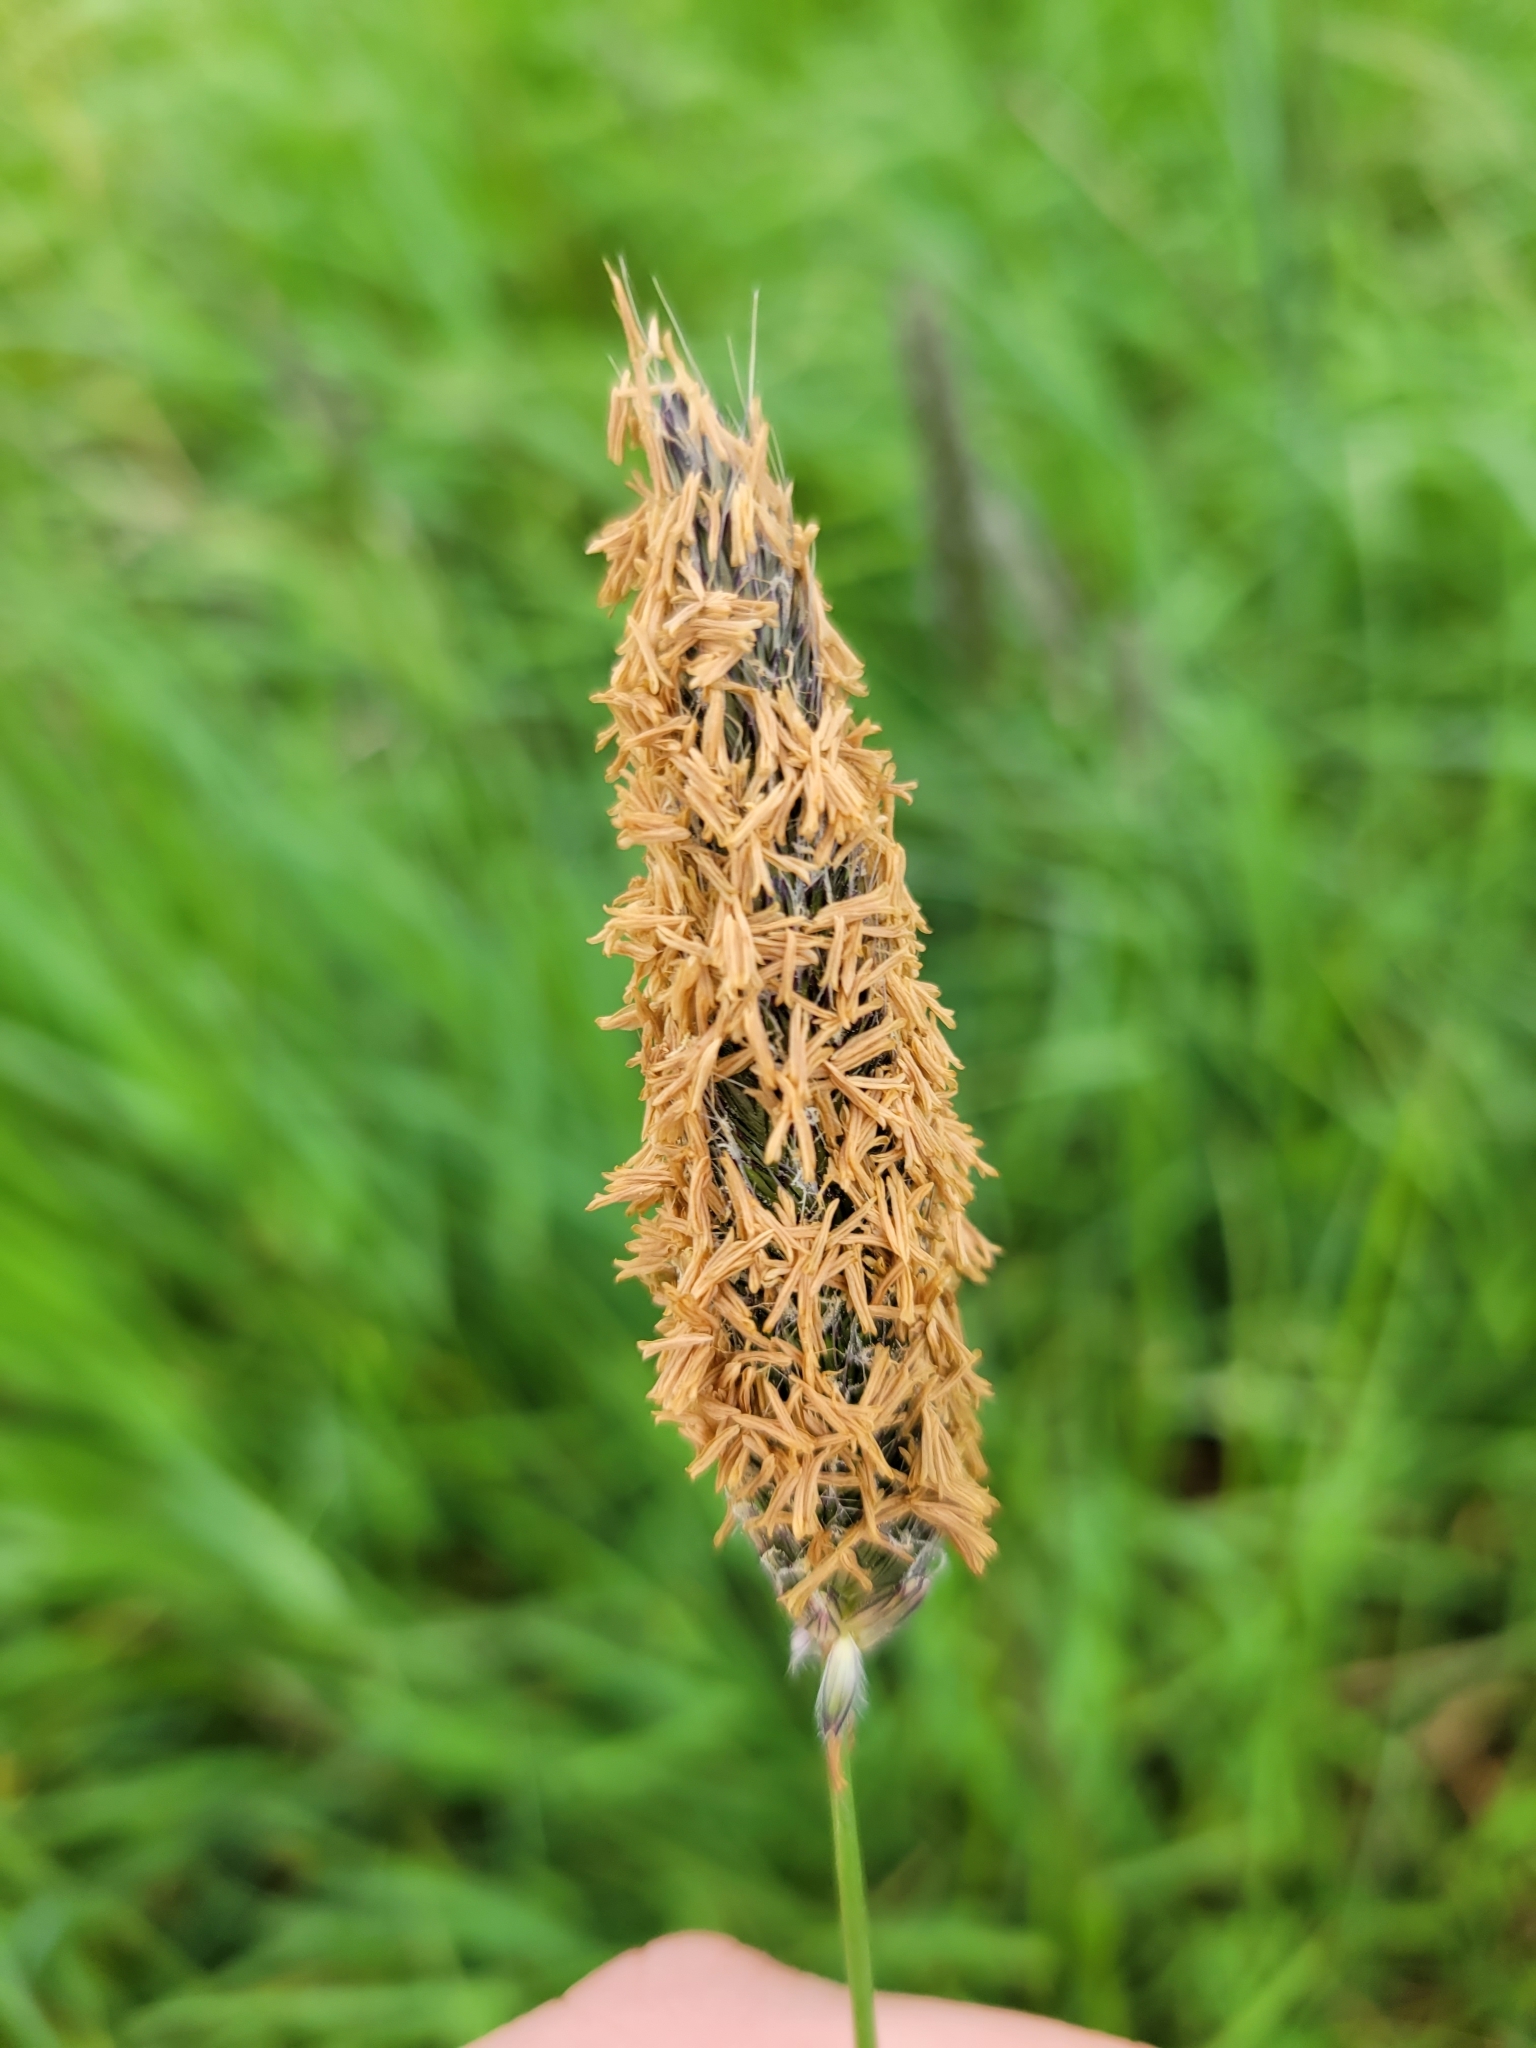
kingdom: Plantae
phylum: Tracheophyta
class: Liliopsida
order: Poales
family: Poaceae
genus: Alopecurus
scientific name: Alopecurus pratensis
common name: Meadow foxtail
